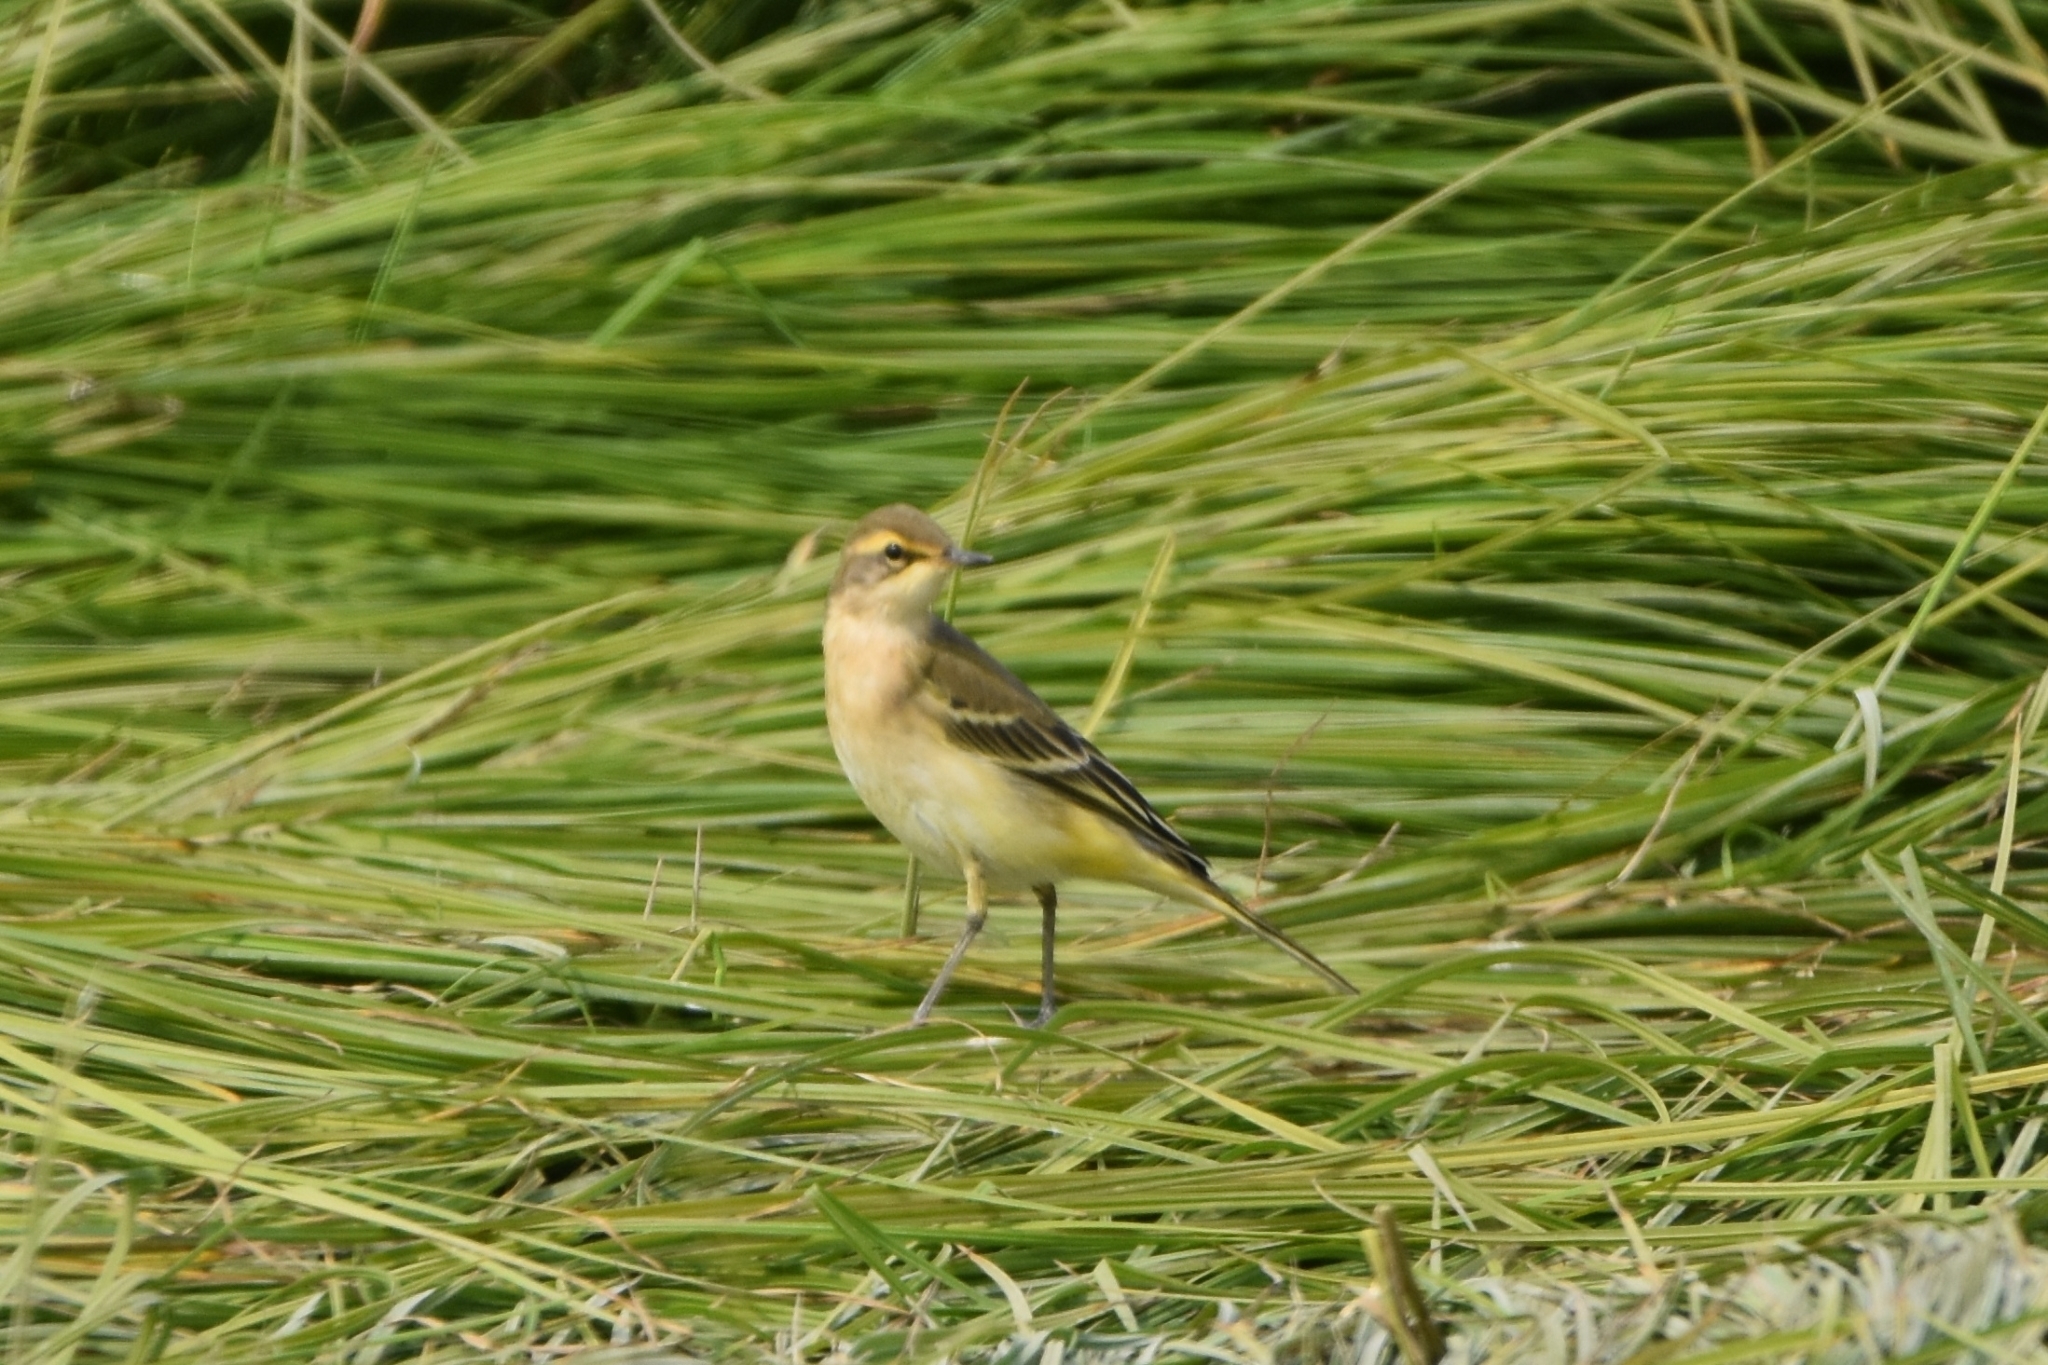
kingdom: Animalia
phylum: Chordata
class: Aves
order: Passeriformes
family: Motacillidae
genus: Motacilla
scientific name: Motacilla tschutschensis
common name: Eastern yellow wagtail
